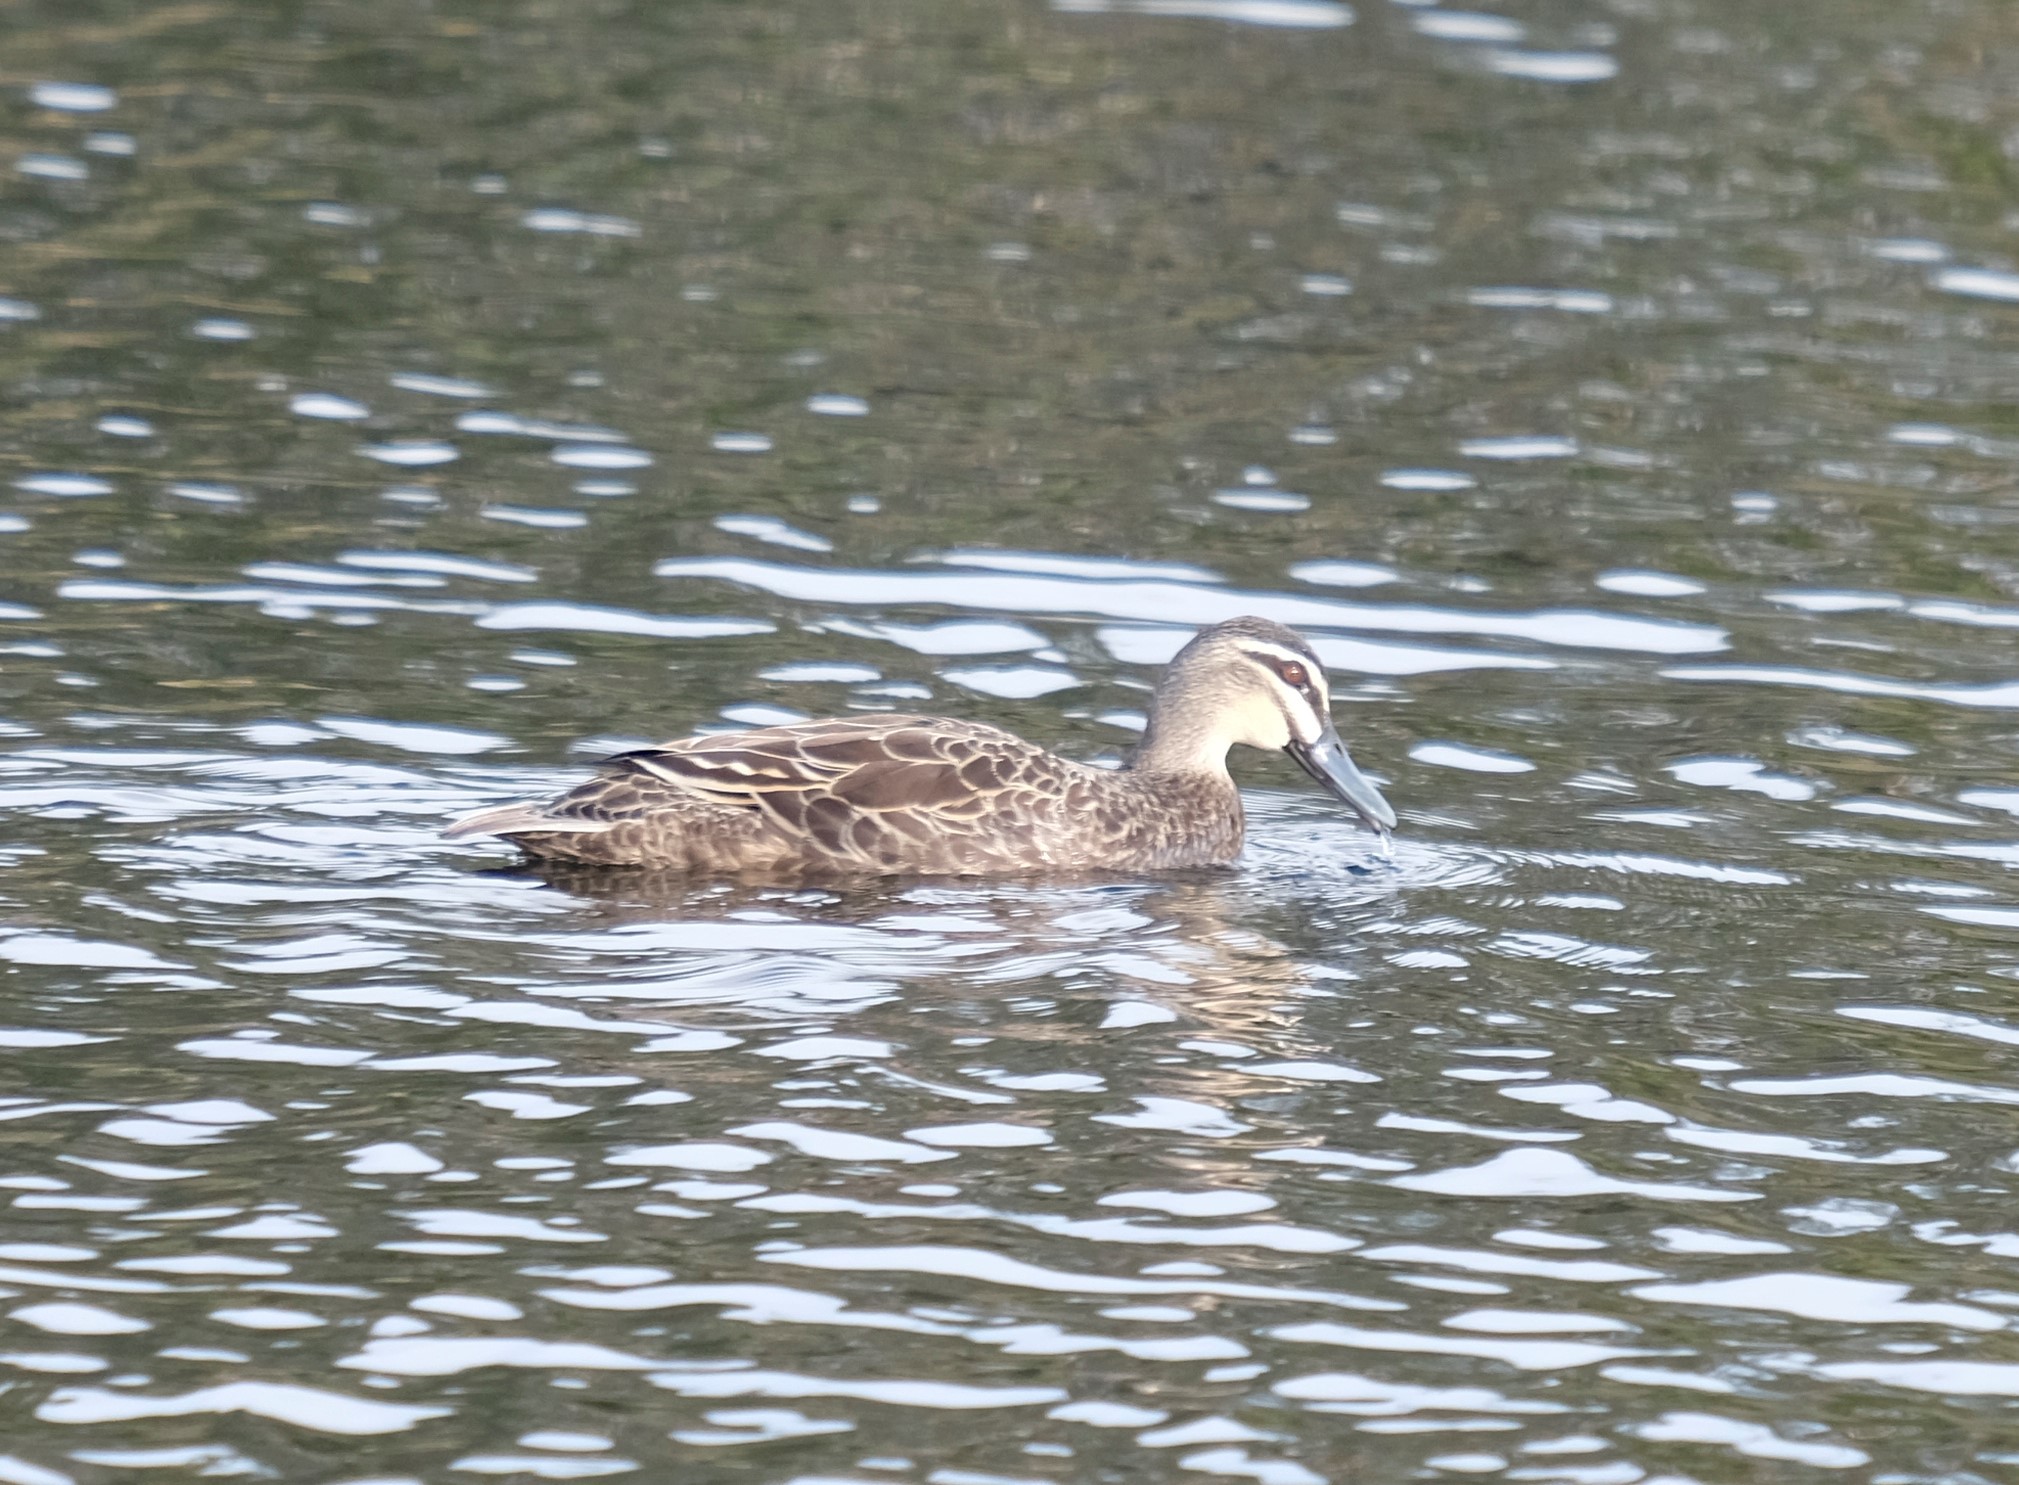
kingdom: Animalia
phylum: Chordata
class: Aves
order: Anseriformes
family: Anatidae
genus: Anas
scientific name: Anas superciliosa
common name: Pacific black duck
